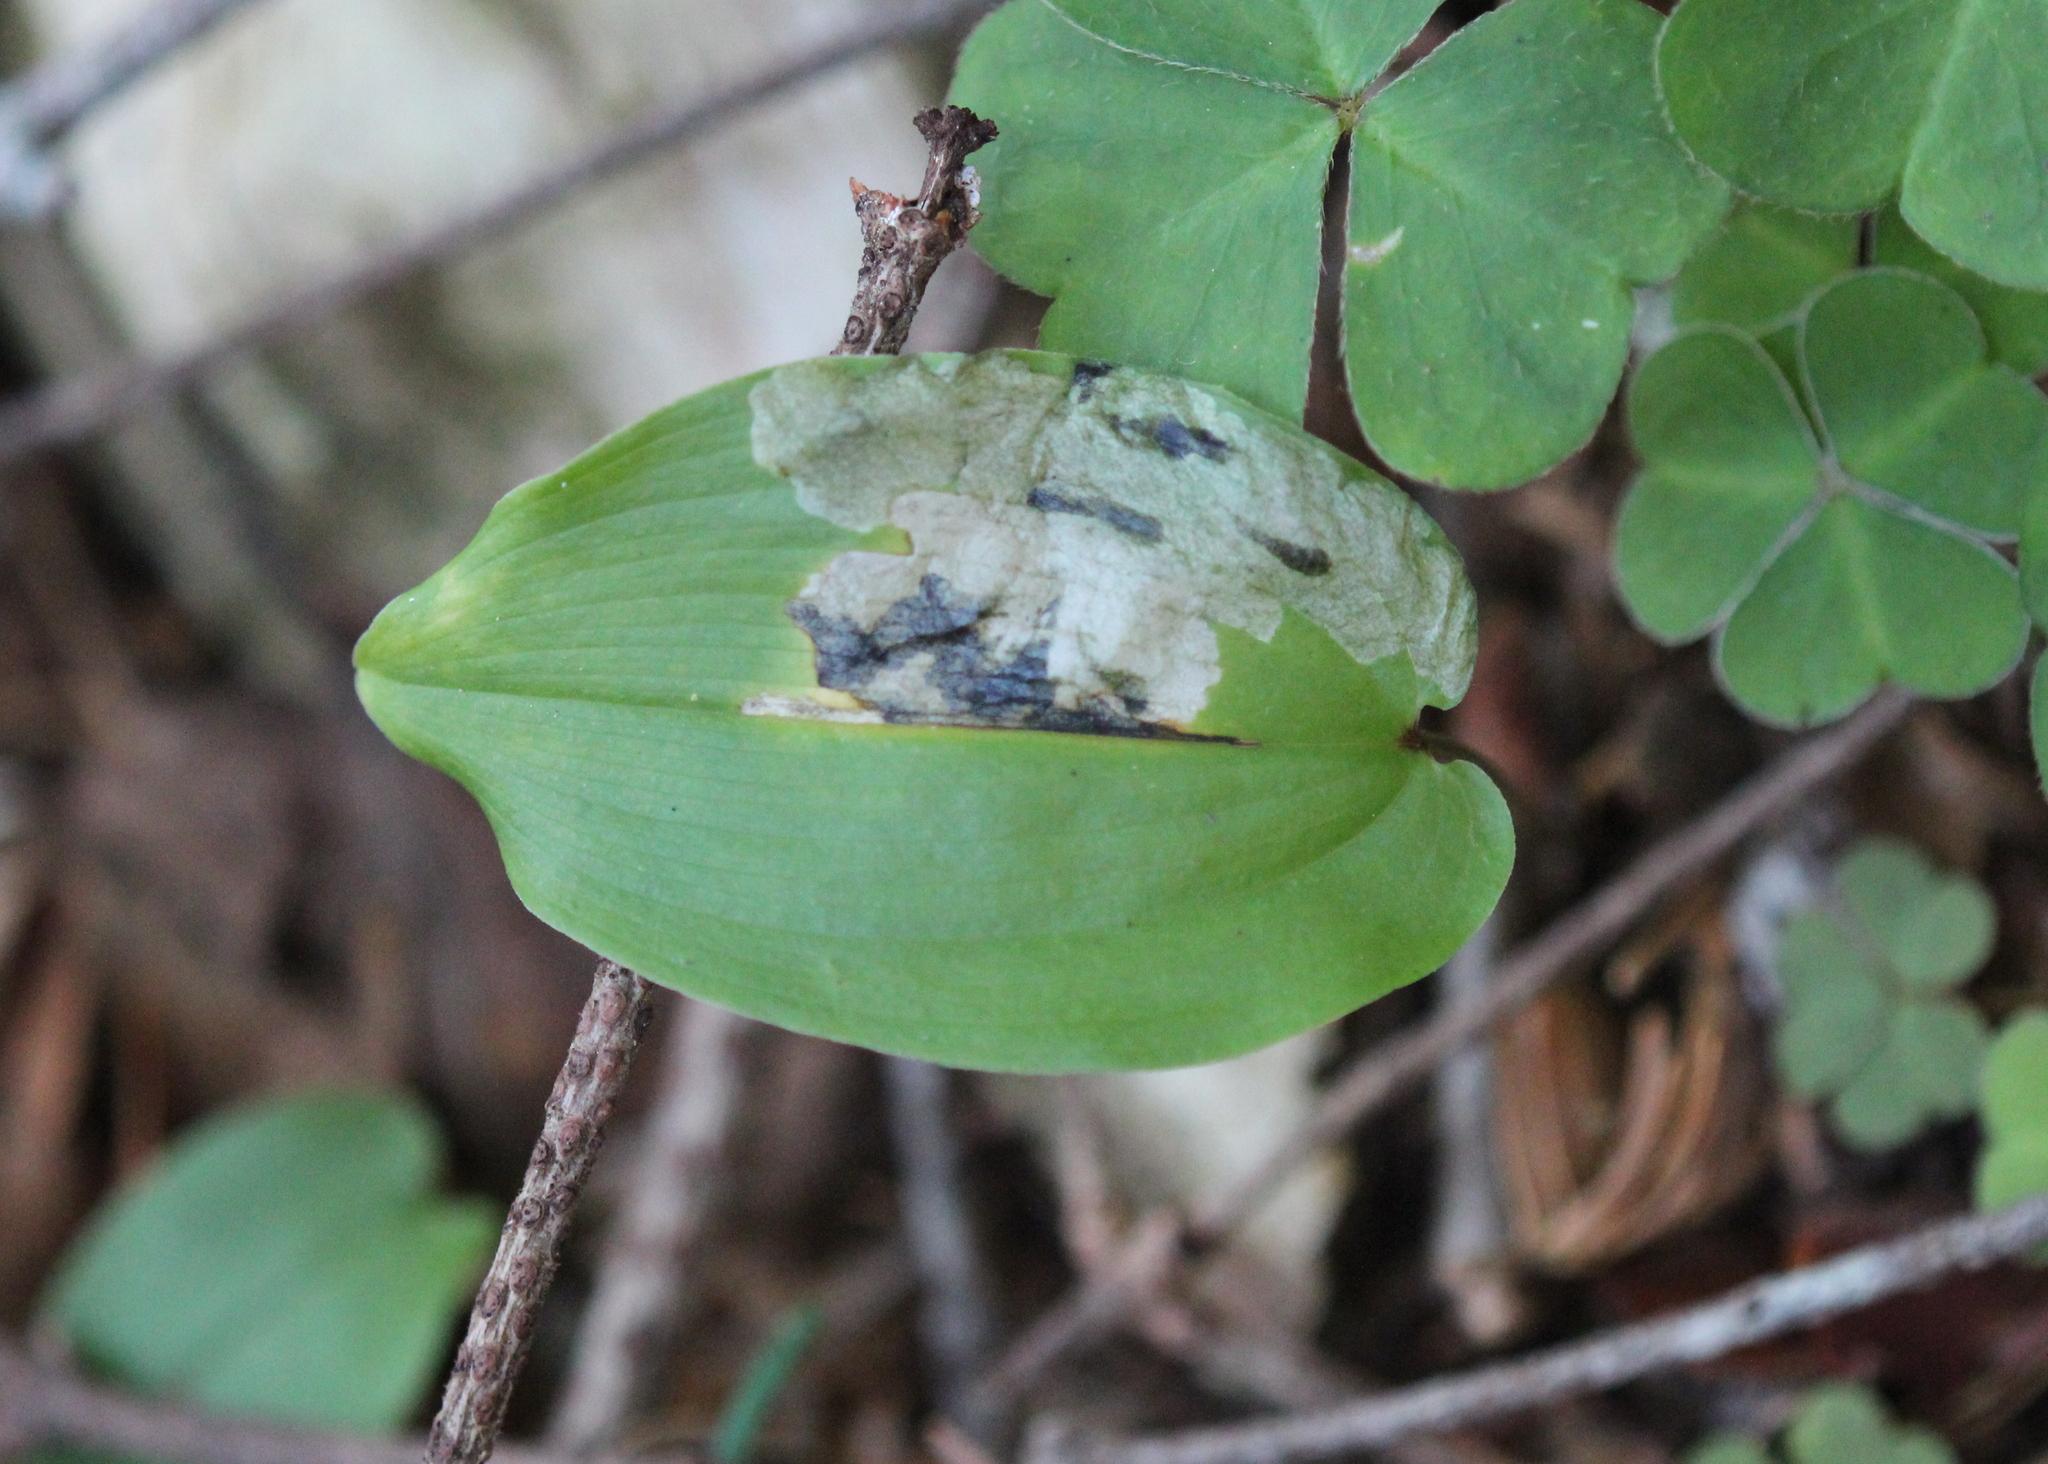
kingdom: Plantae
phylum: Tracheophyta
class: Liliopsida
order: Asparagales
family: Asparagaceae
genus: Maianthemum
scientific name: Maianthemum canadense
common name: False lily-of-the-valley
